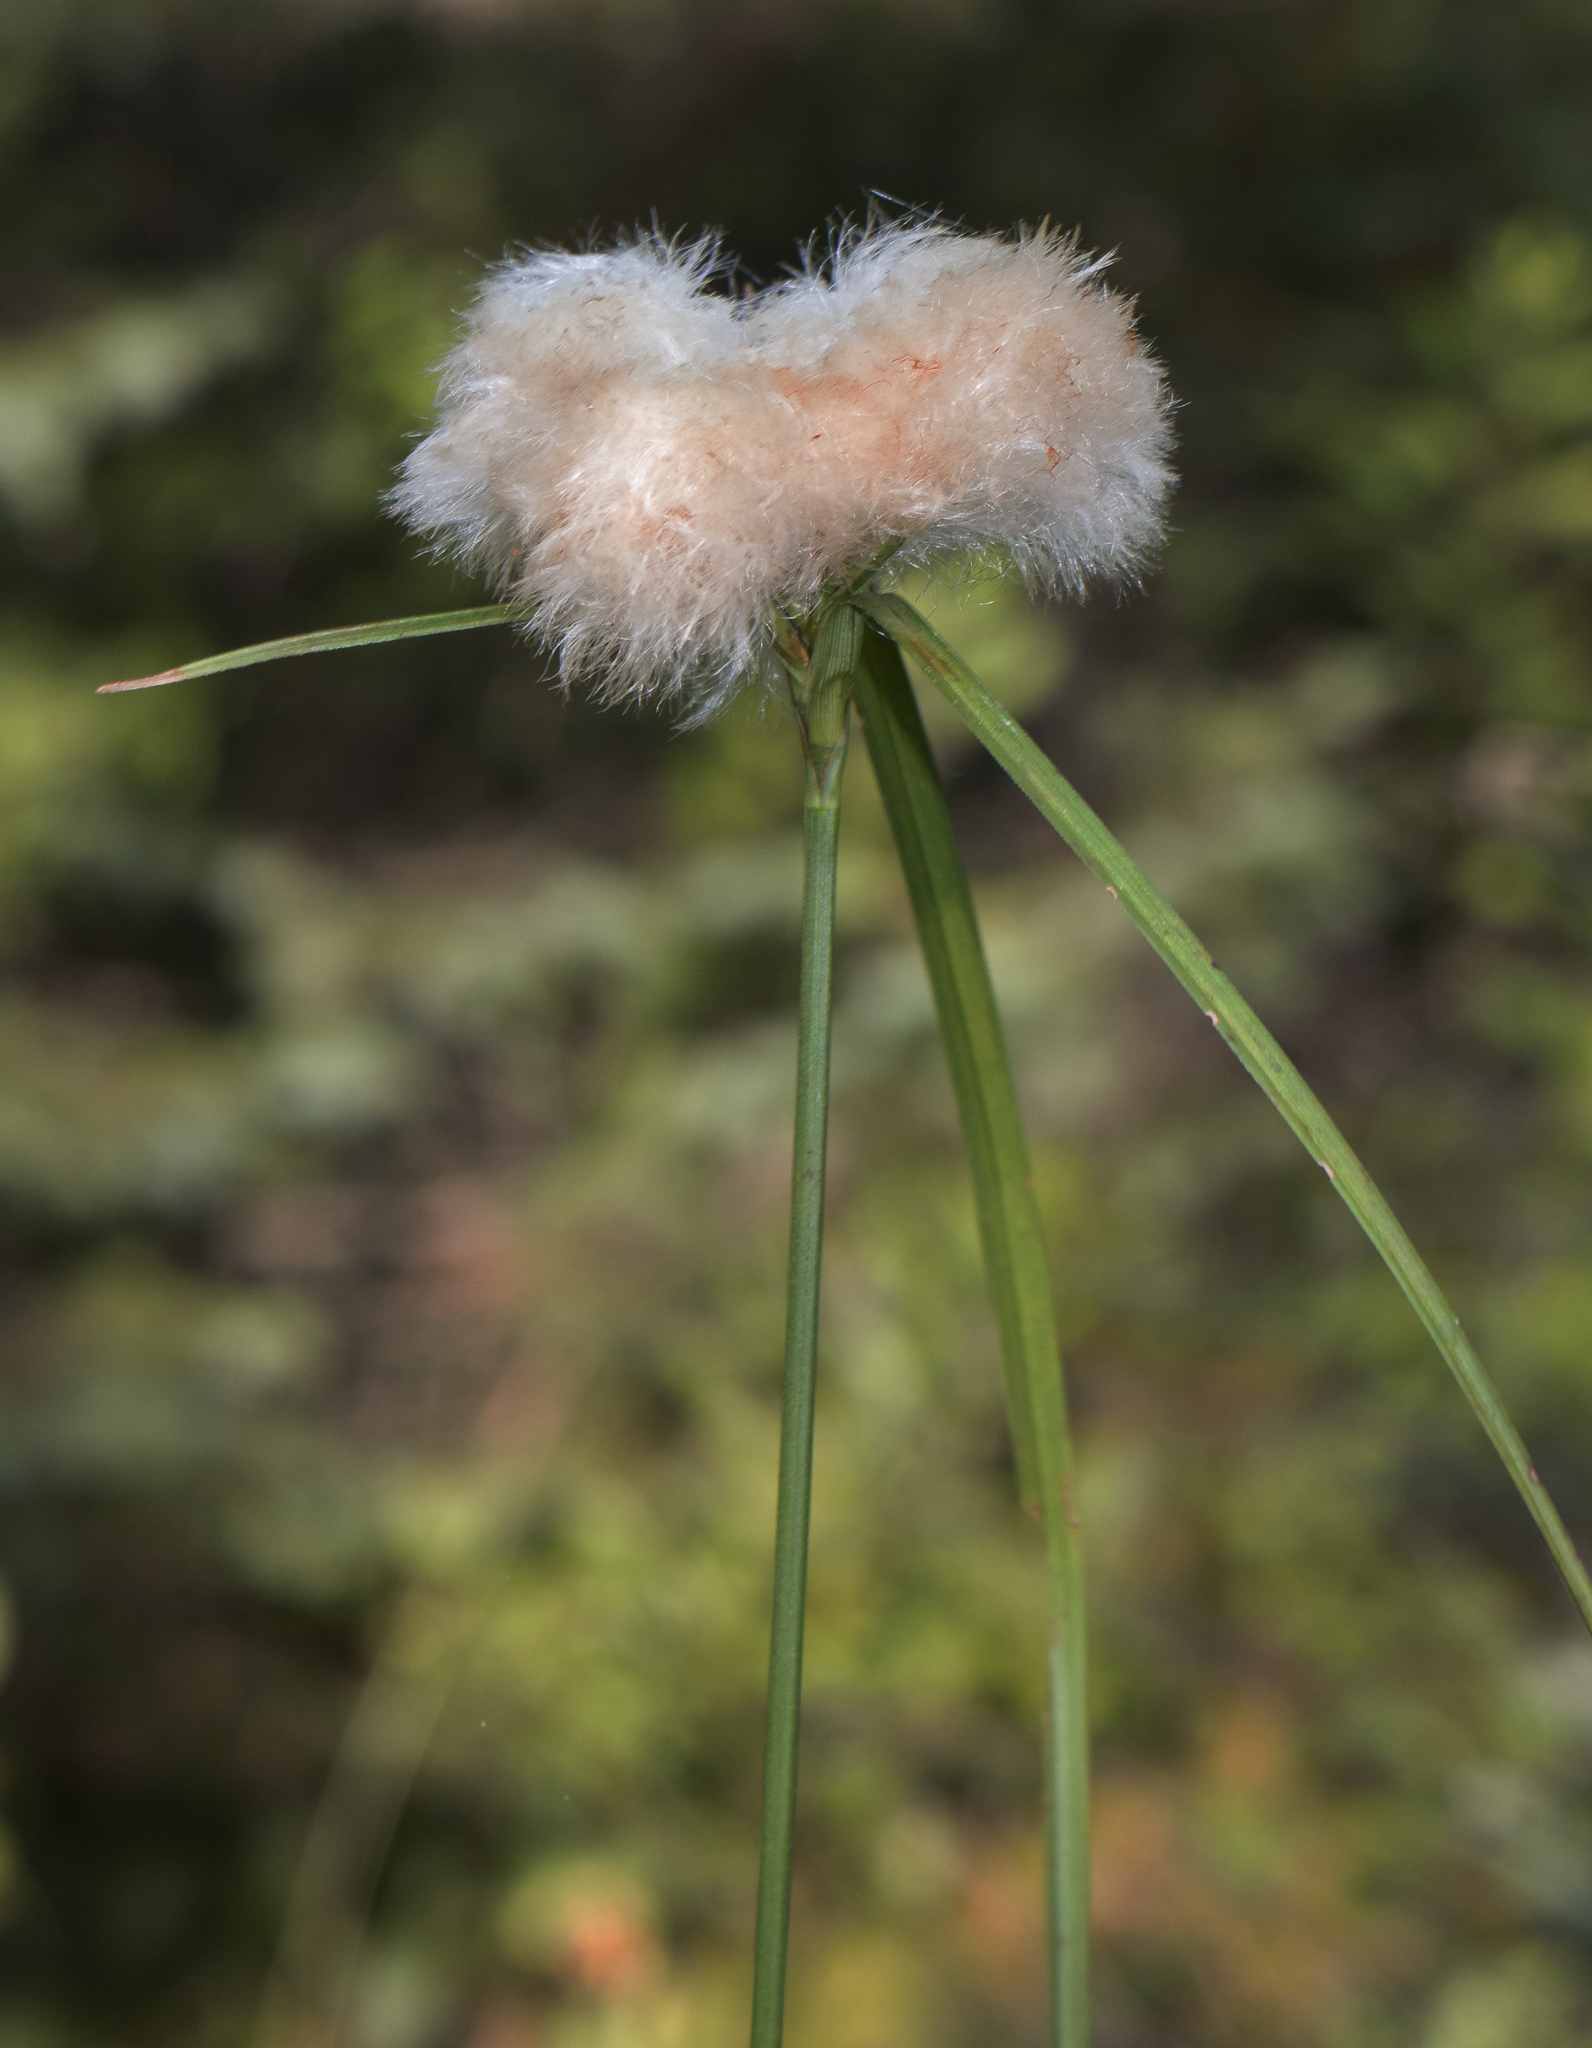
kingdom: Plantae
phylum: Tracheophyta
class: Liliopsida
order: Poales
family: Cyperaceae
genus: Eriophorum
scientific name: Eriophorum virginicum
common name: Tawny cottongrass
